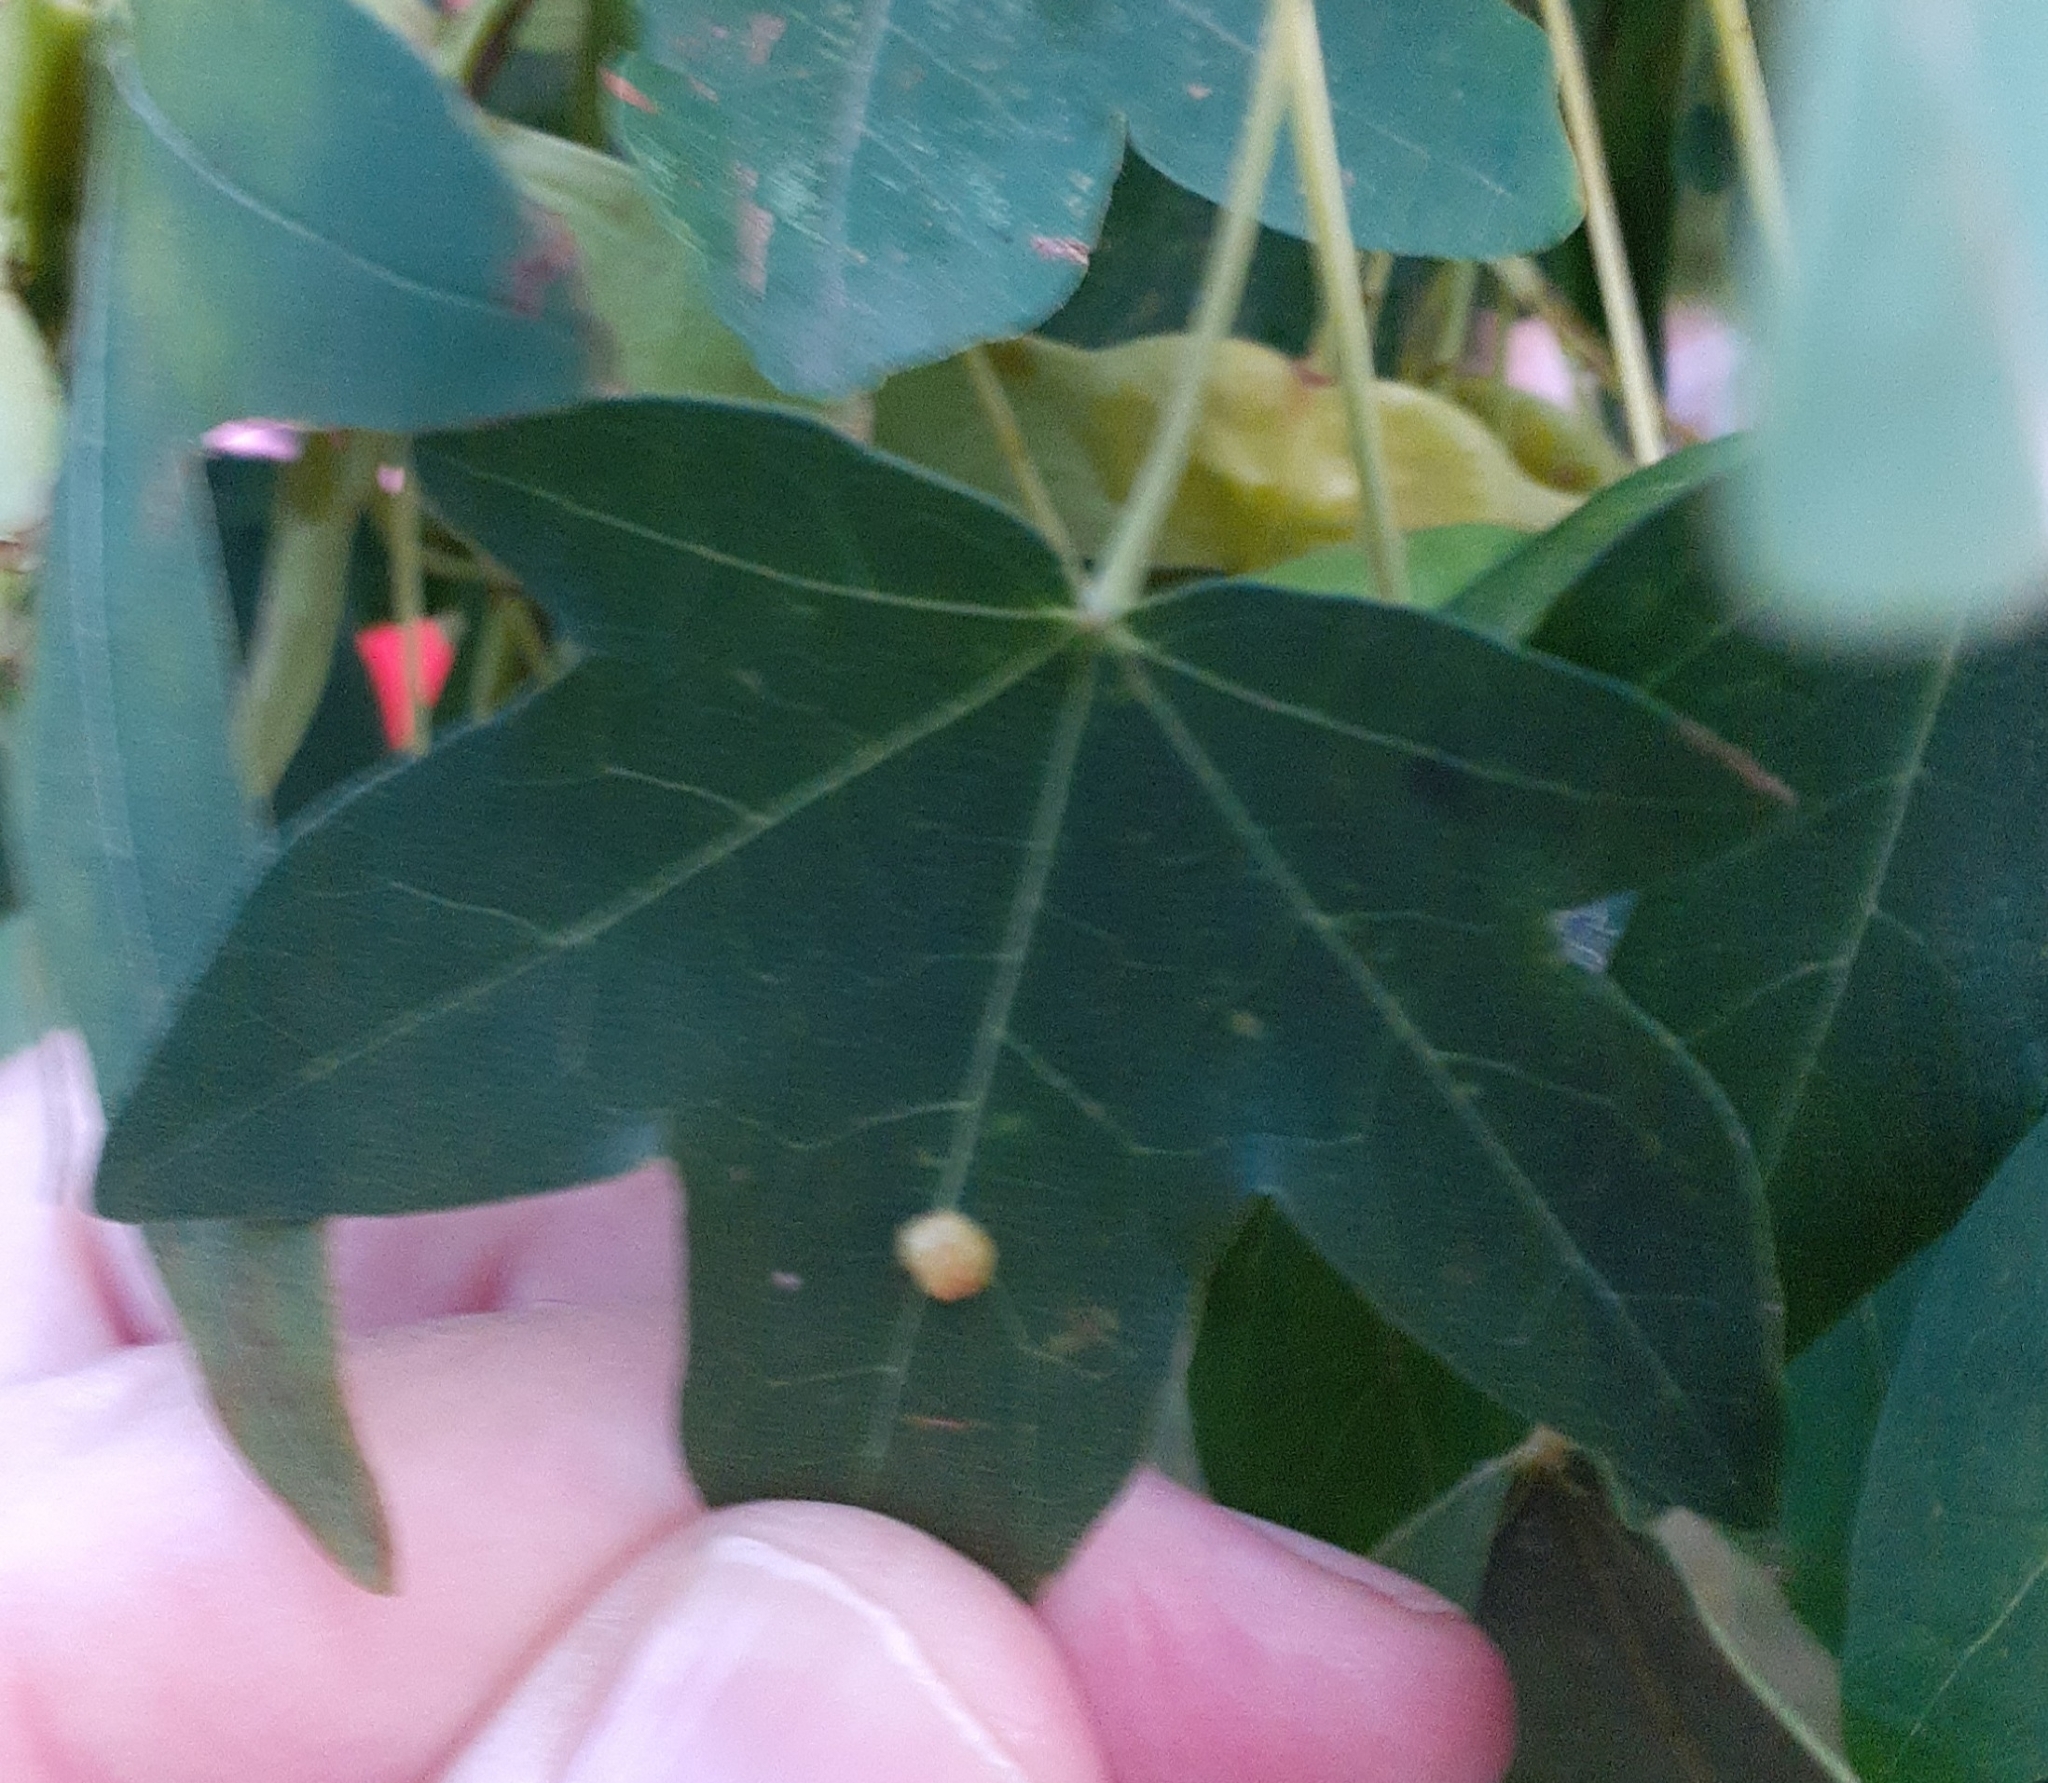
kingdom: Animalia
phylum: Arthropoda
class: Arachnida
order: Trombidiformes
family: Eriophyidae
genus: Aceria
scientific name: Aceria macrochelus
